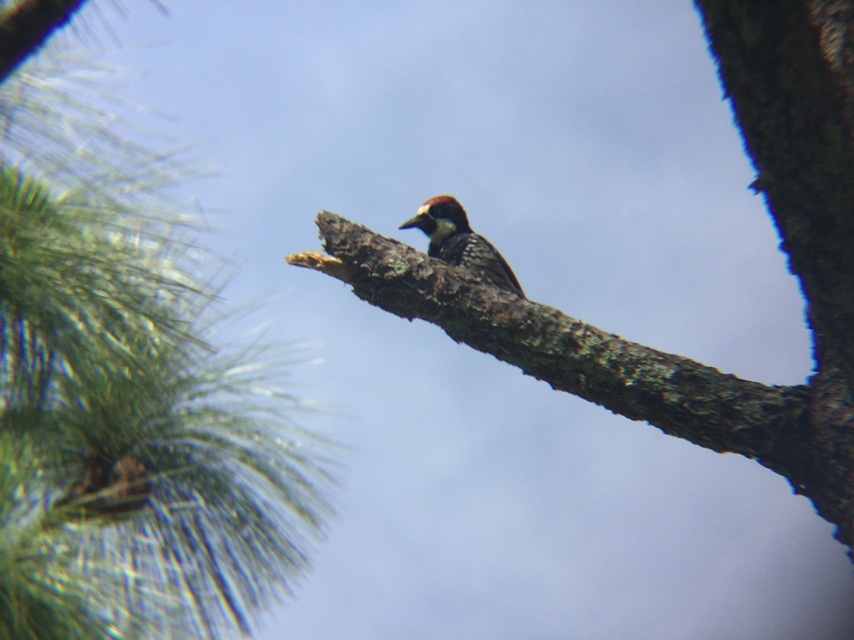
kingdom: Animalia
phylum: Chordata
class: Aves
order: Piciformes
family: Picidae
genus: Melanerpes
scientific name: Melanerpes formicivorus
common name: Acorn woodpecker
